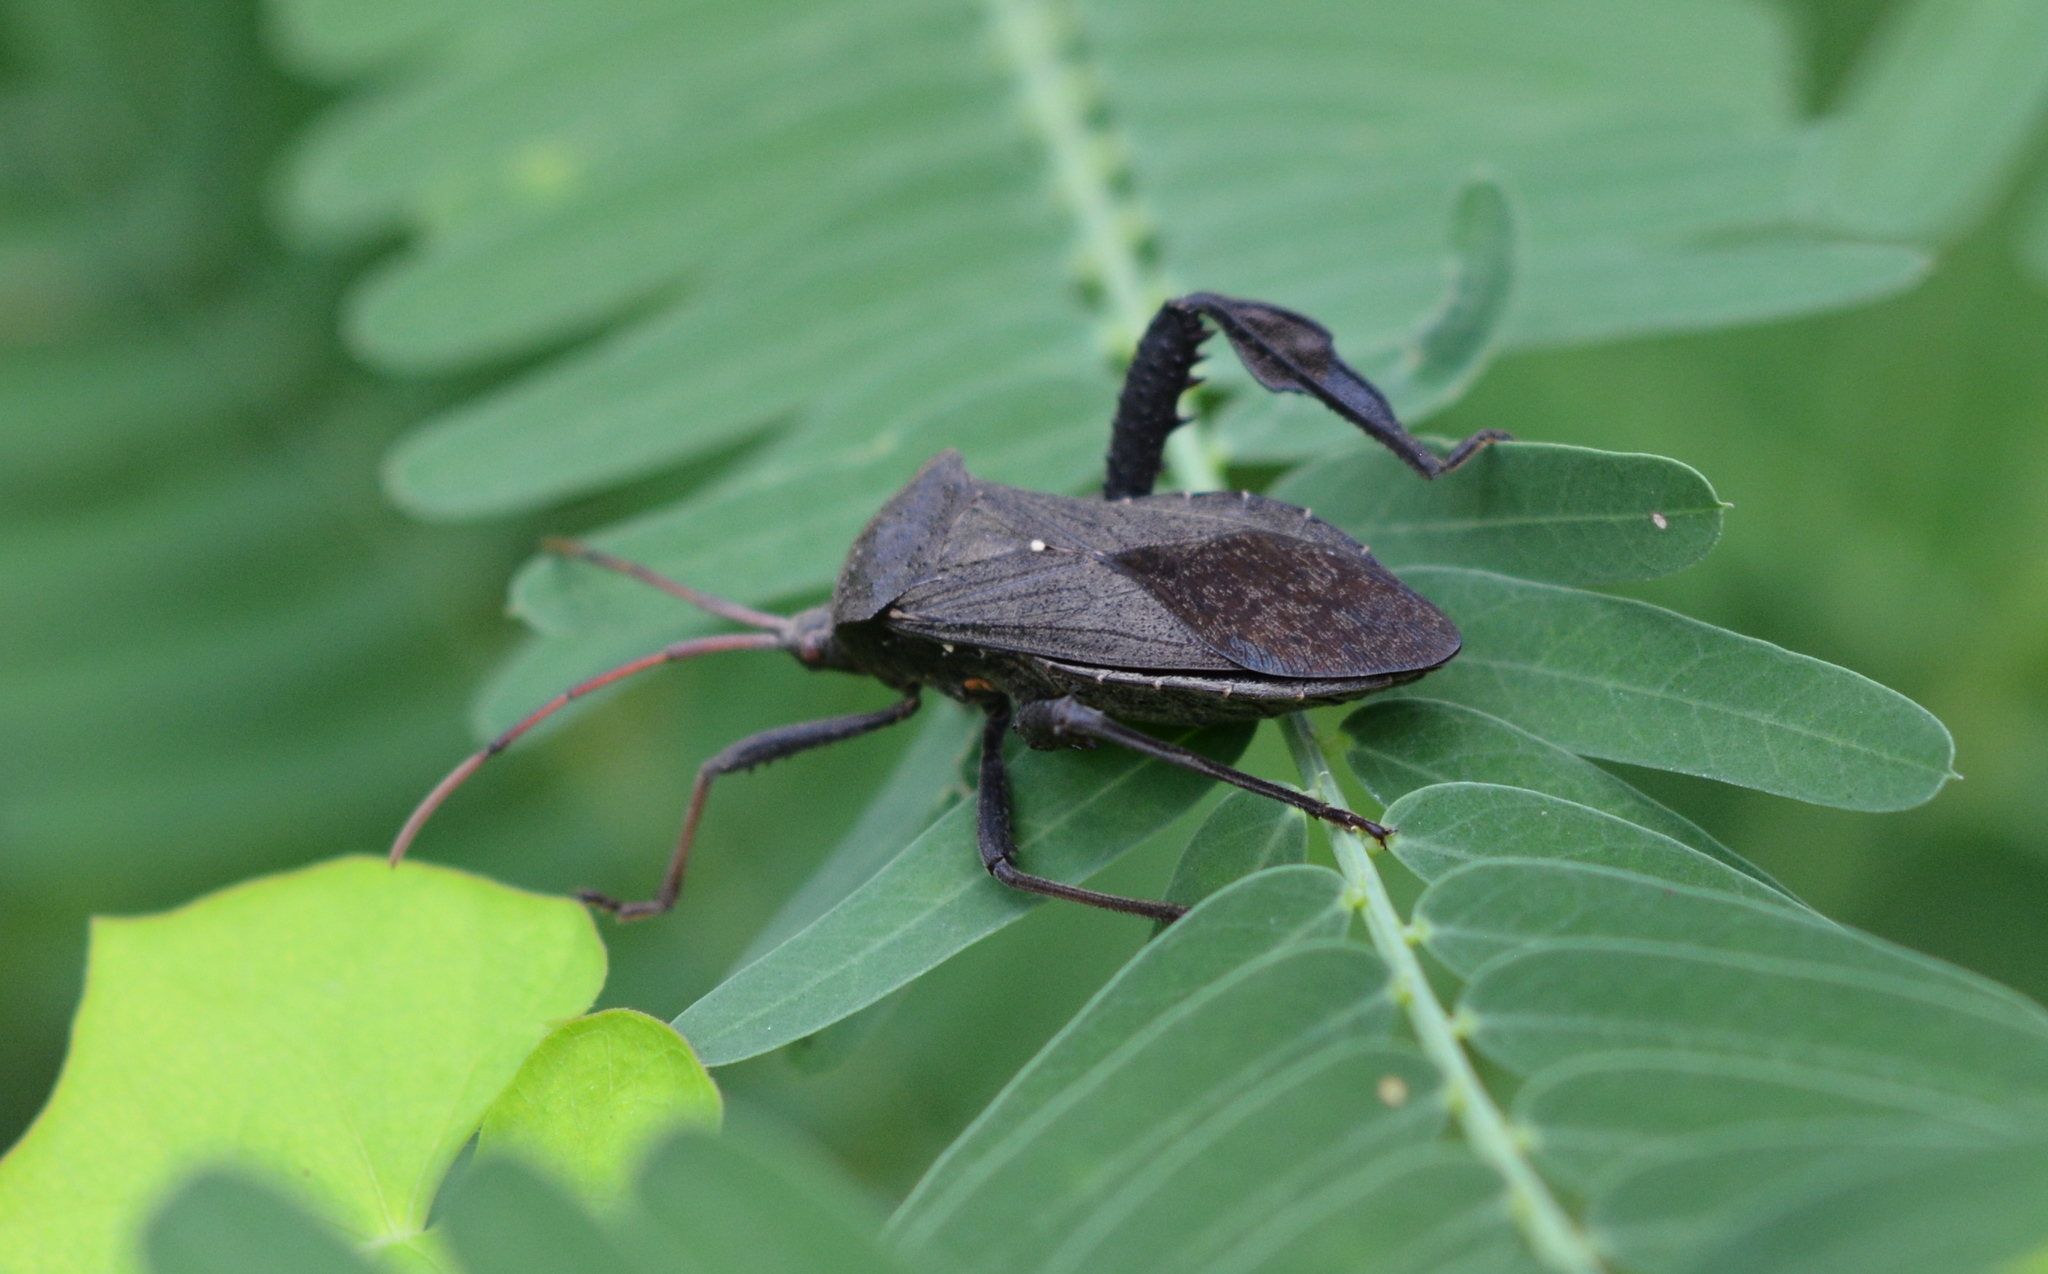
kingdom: Animalia
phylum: Arthropoda
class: Insecta
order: Hemiptera
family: Coreidae
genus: Acanthocephala
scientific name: Acanthocephala femorata
